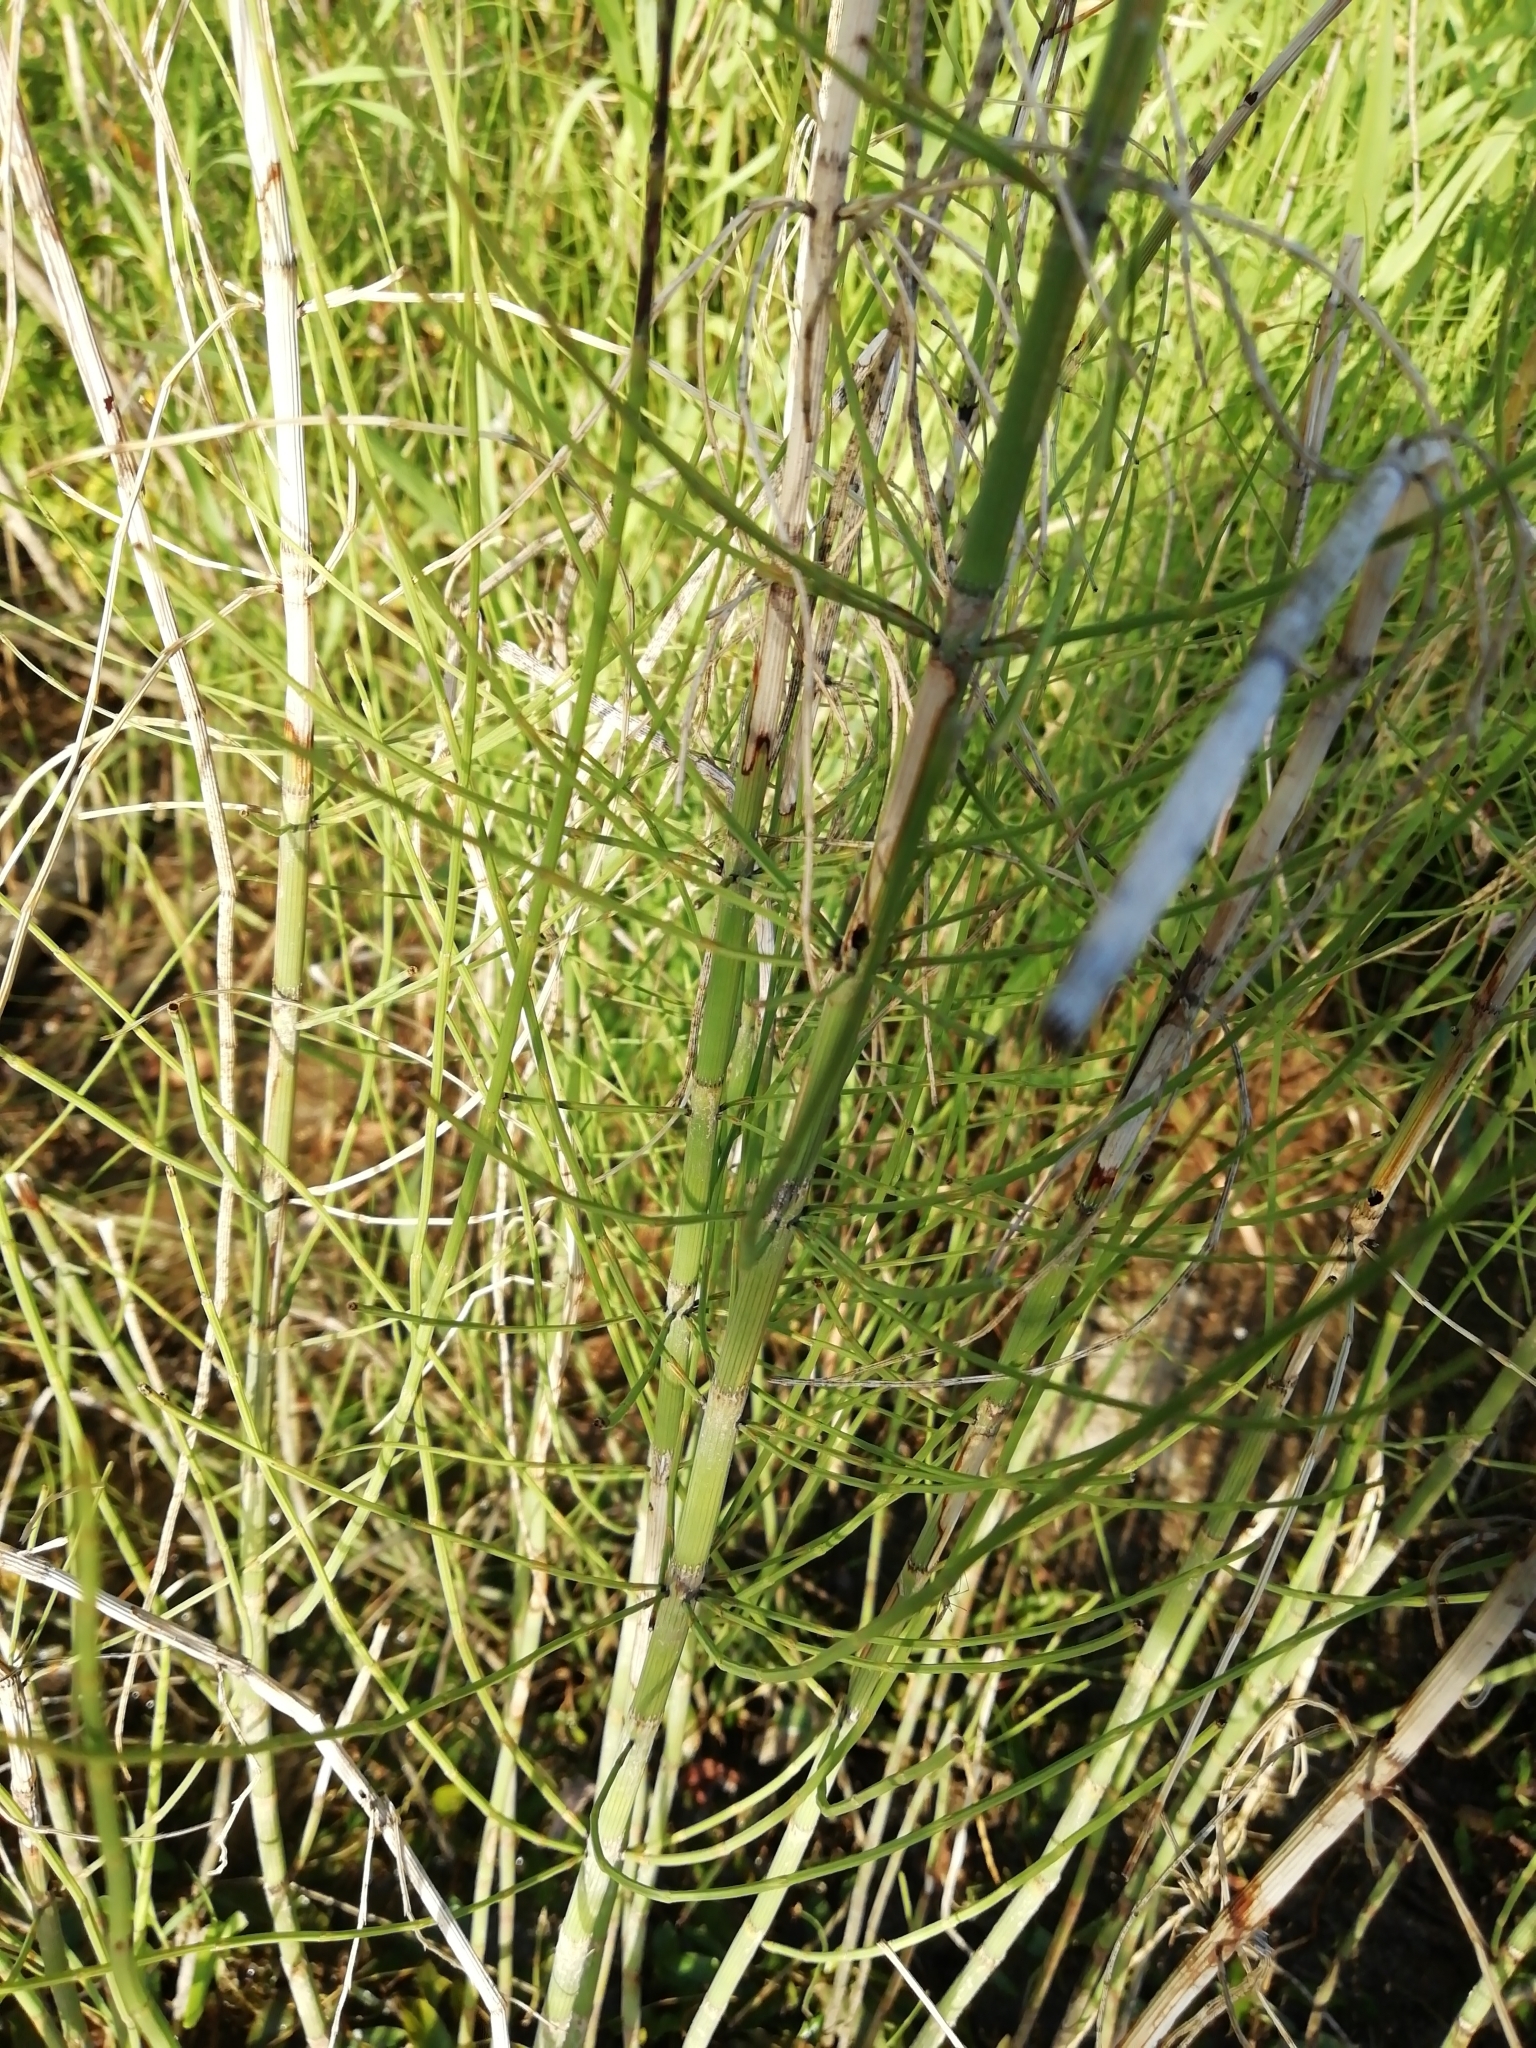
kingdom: Plantae
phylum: Tracheophyta
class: Polypodiopsida
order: Equisetales
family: Equisetaceae
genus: Equisetum
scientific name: Equisetum fluviatile
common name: Water horsetail
